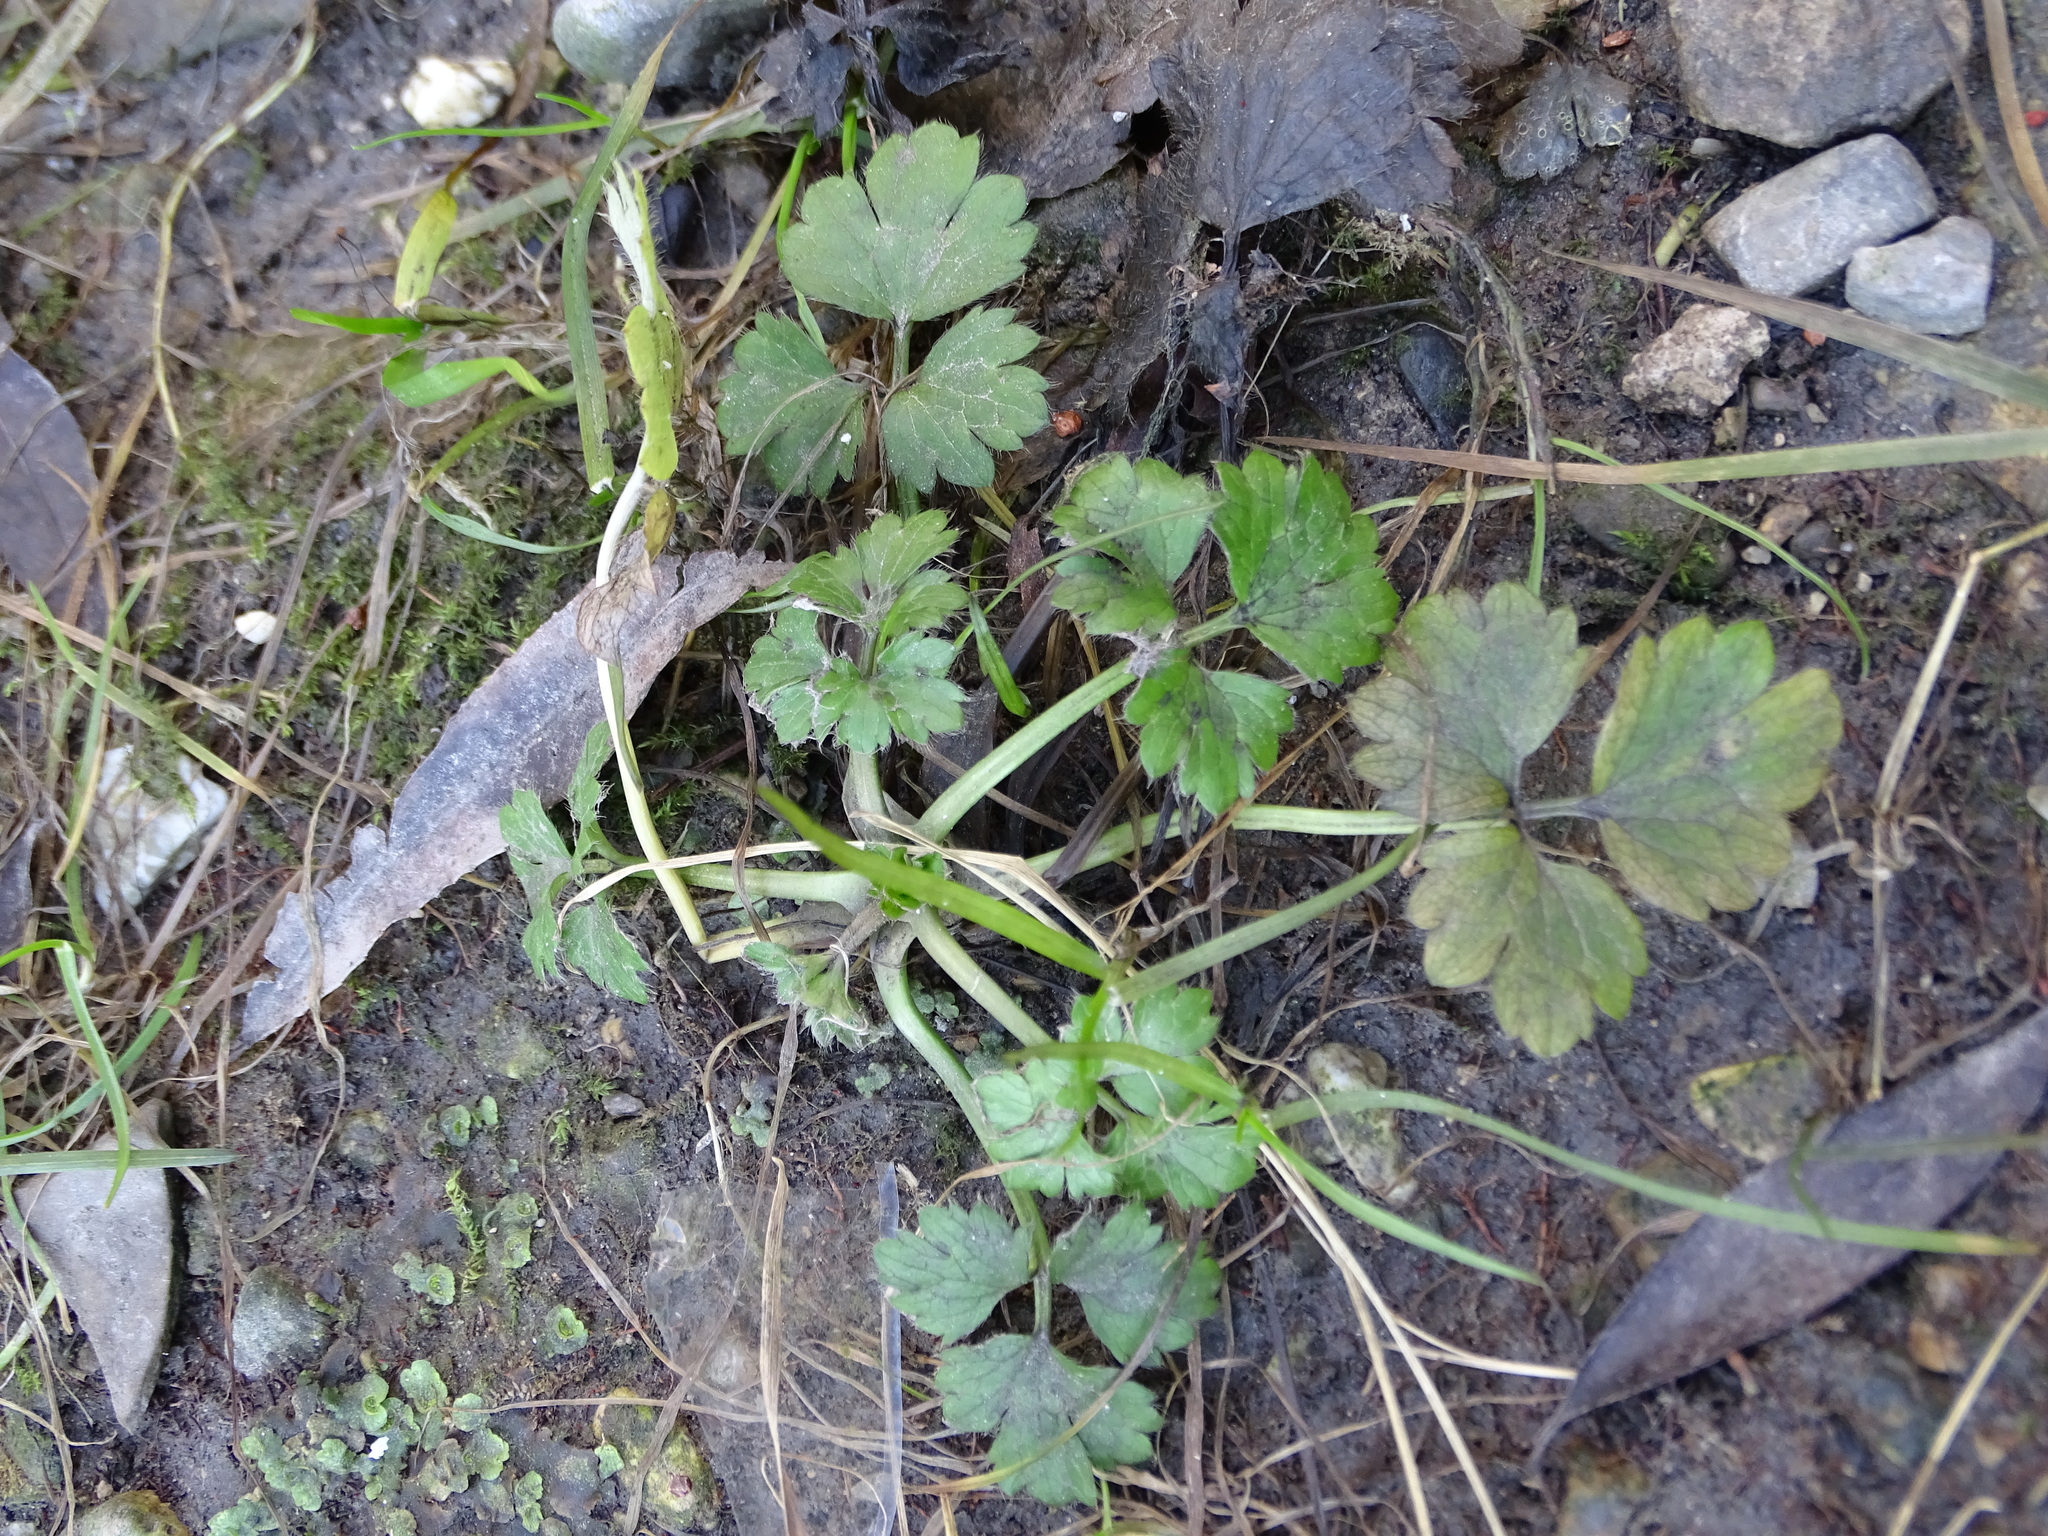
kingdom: Plantae
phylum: Tracheophyta
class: Magnoliopsida
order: Ranunculales
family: Ranunculaceae
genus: Ranunculus
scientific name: Ranunculus repens
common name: Creeping buttercup
